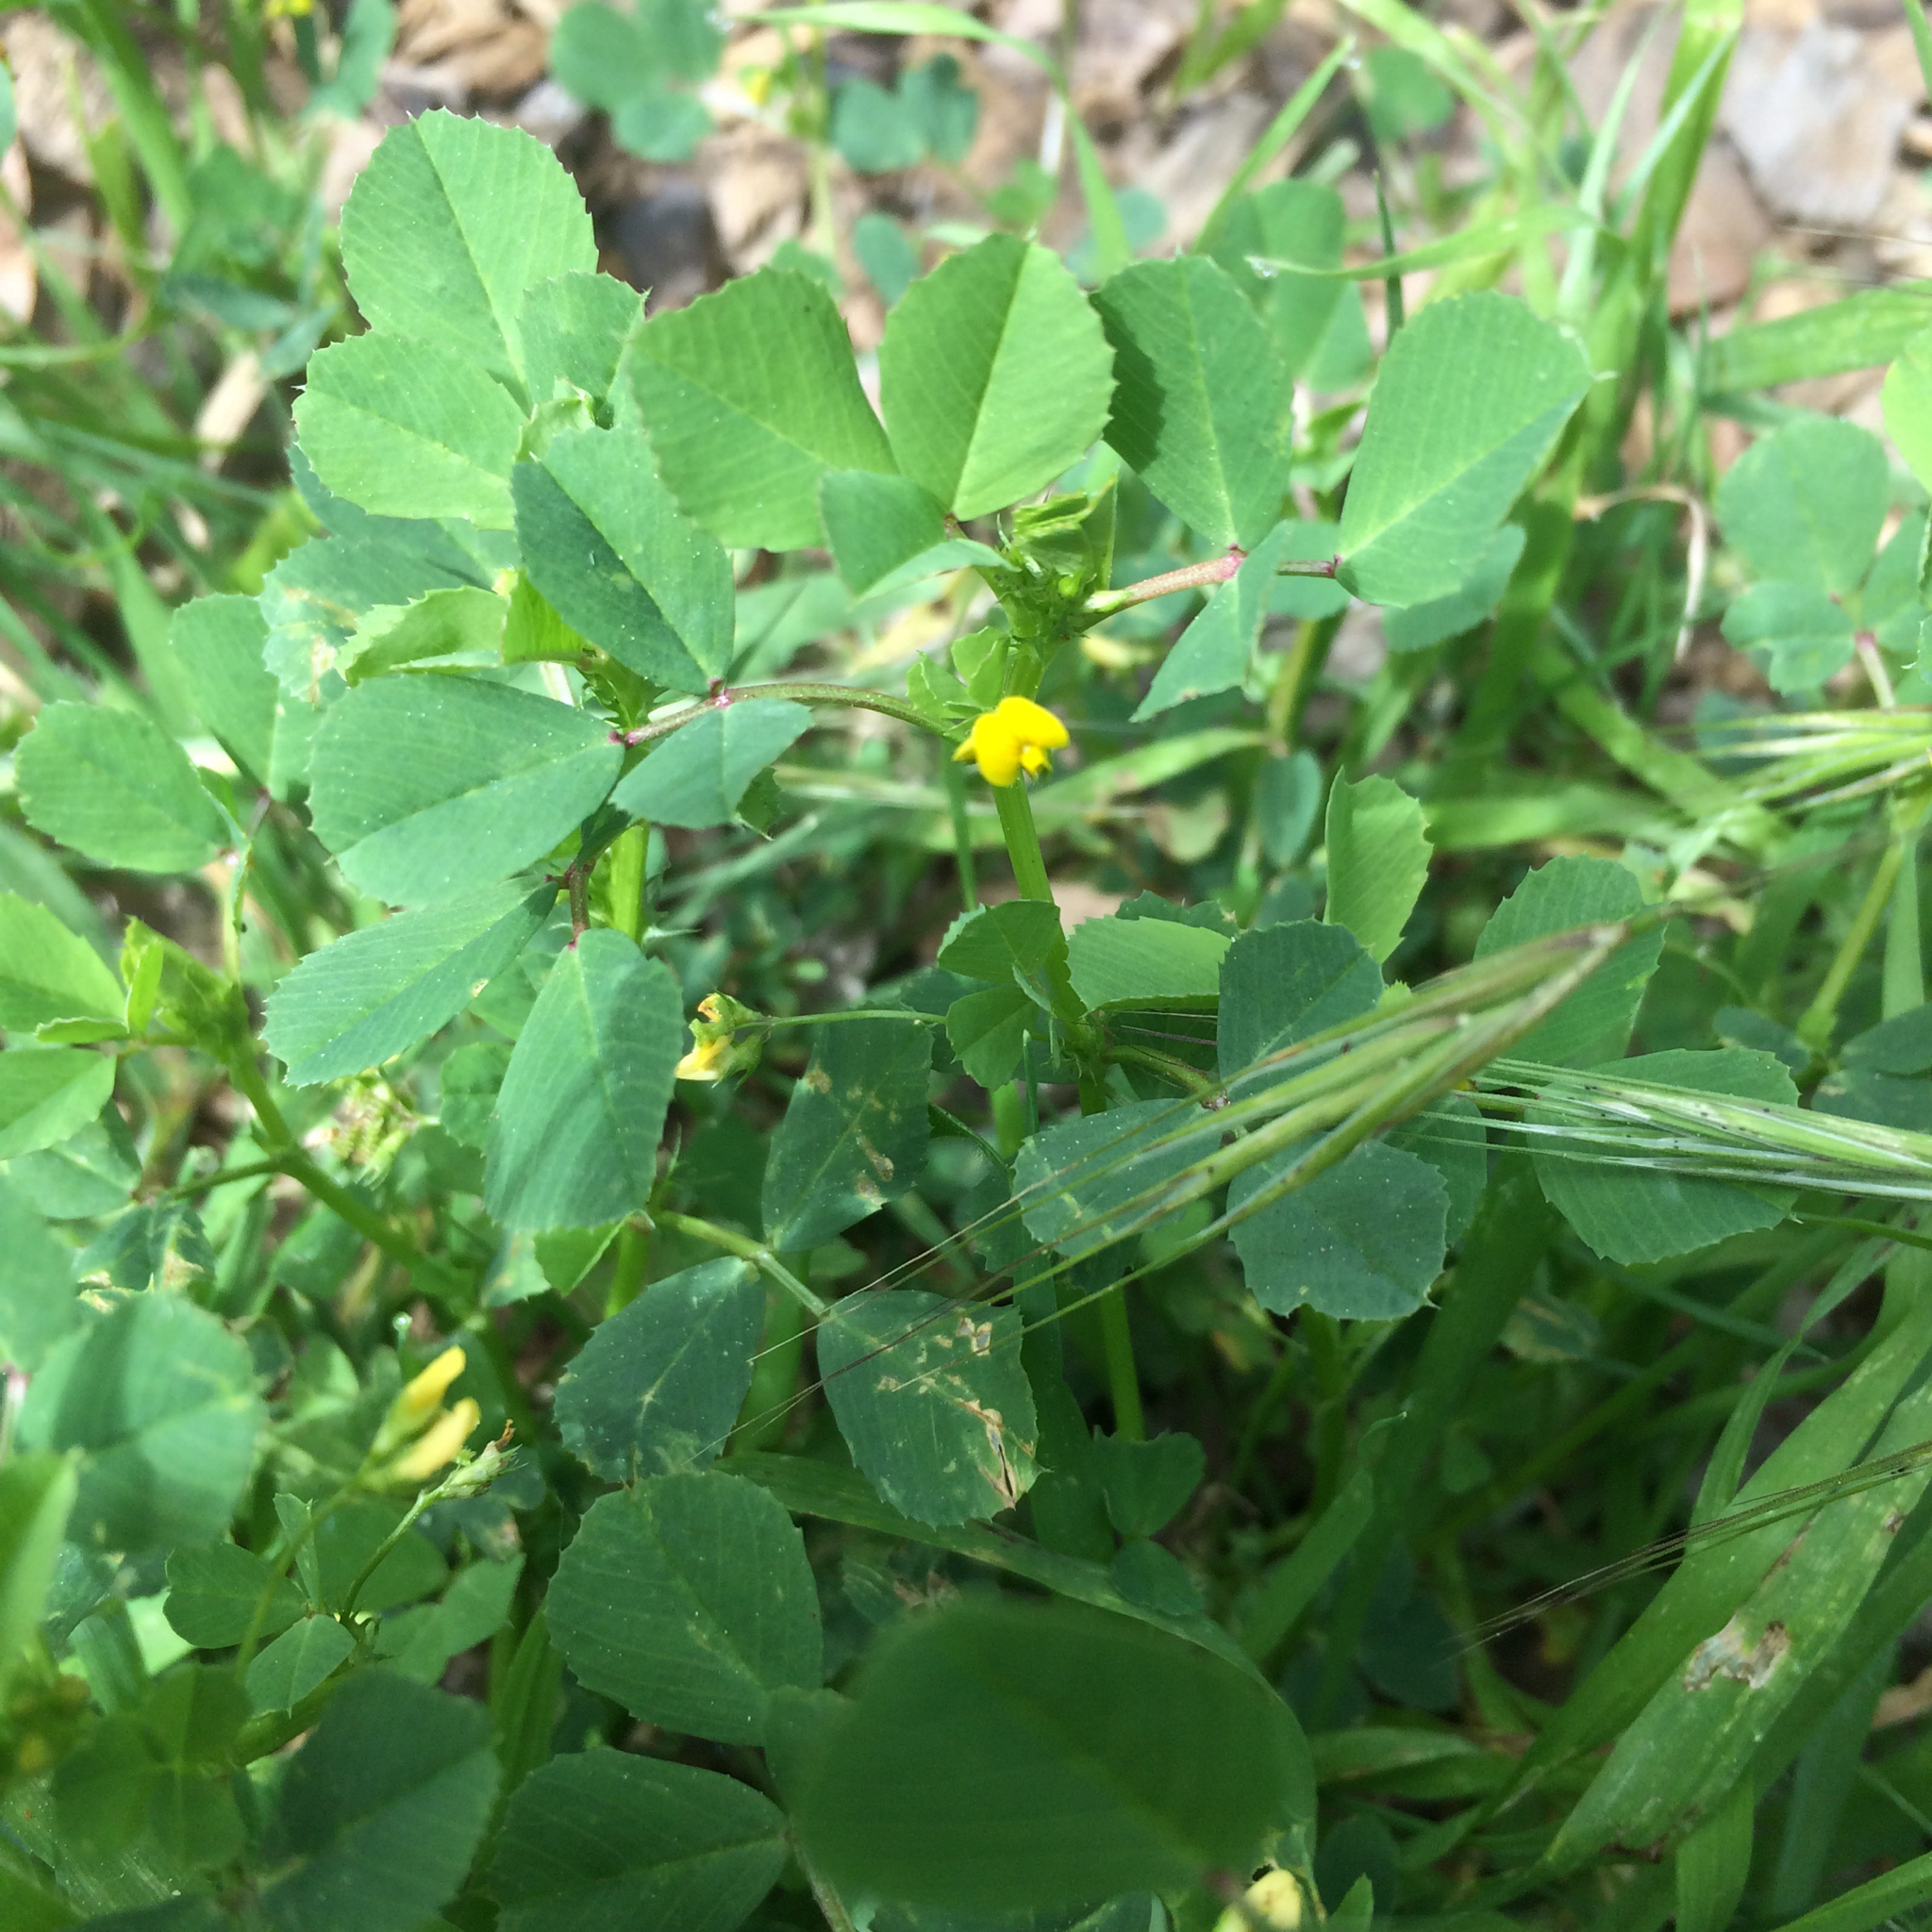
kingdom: Plantae
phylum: Tracheophyta
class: Magnoliopsida
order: Fabales
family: Fabaceae
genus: Medicago
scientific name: Medicago polymorpha
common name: Burclover
